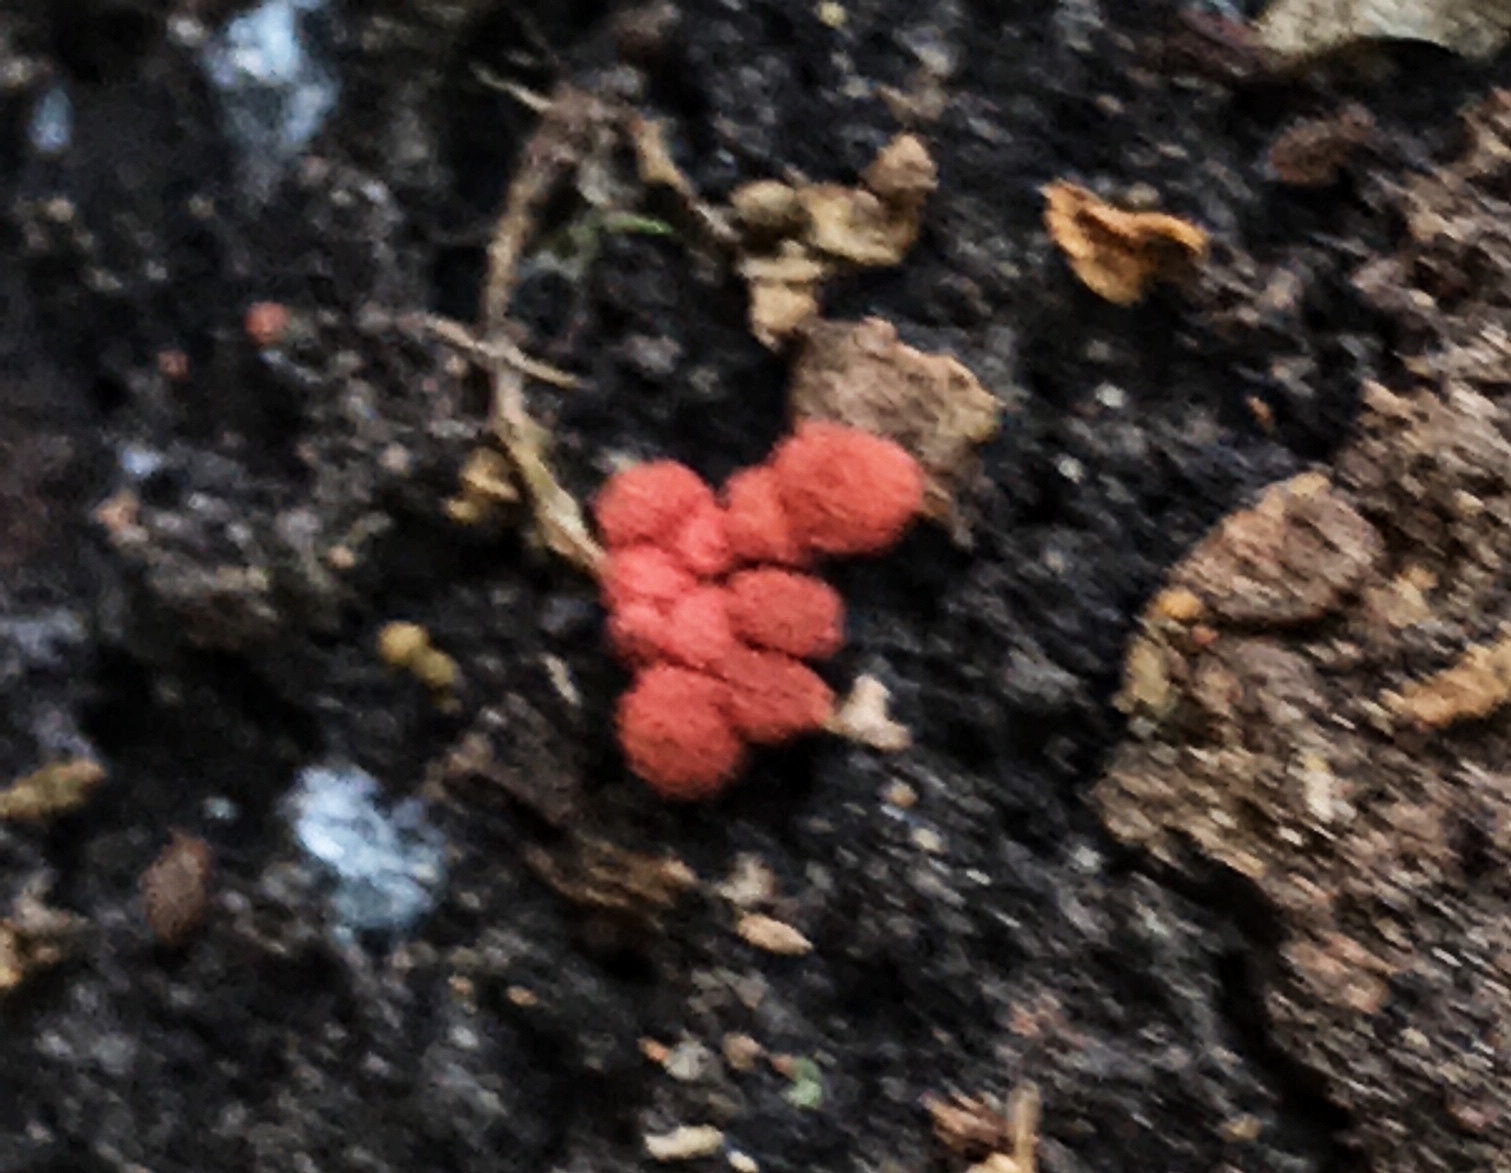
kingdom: Protozoa
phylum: Mycetozoa
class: Myxomycetes
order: Trichiales
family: Arcyriaceae
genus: Arcyria
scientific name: Arcyria denudata
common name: Carnival candy slime mold
